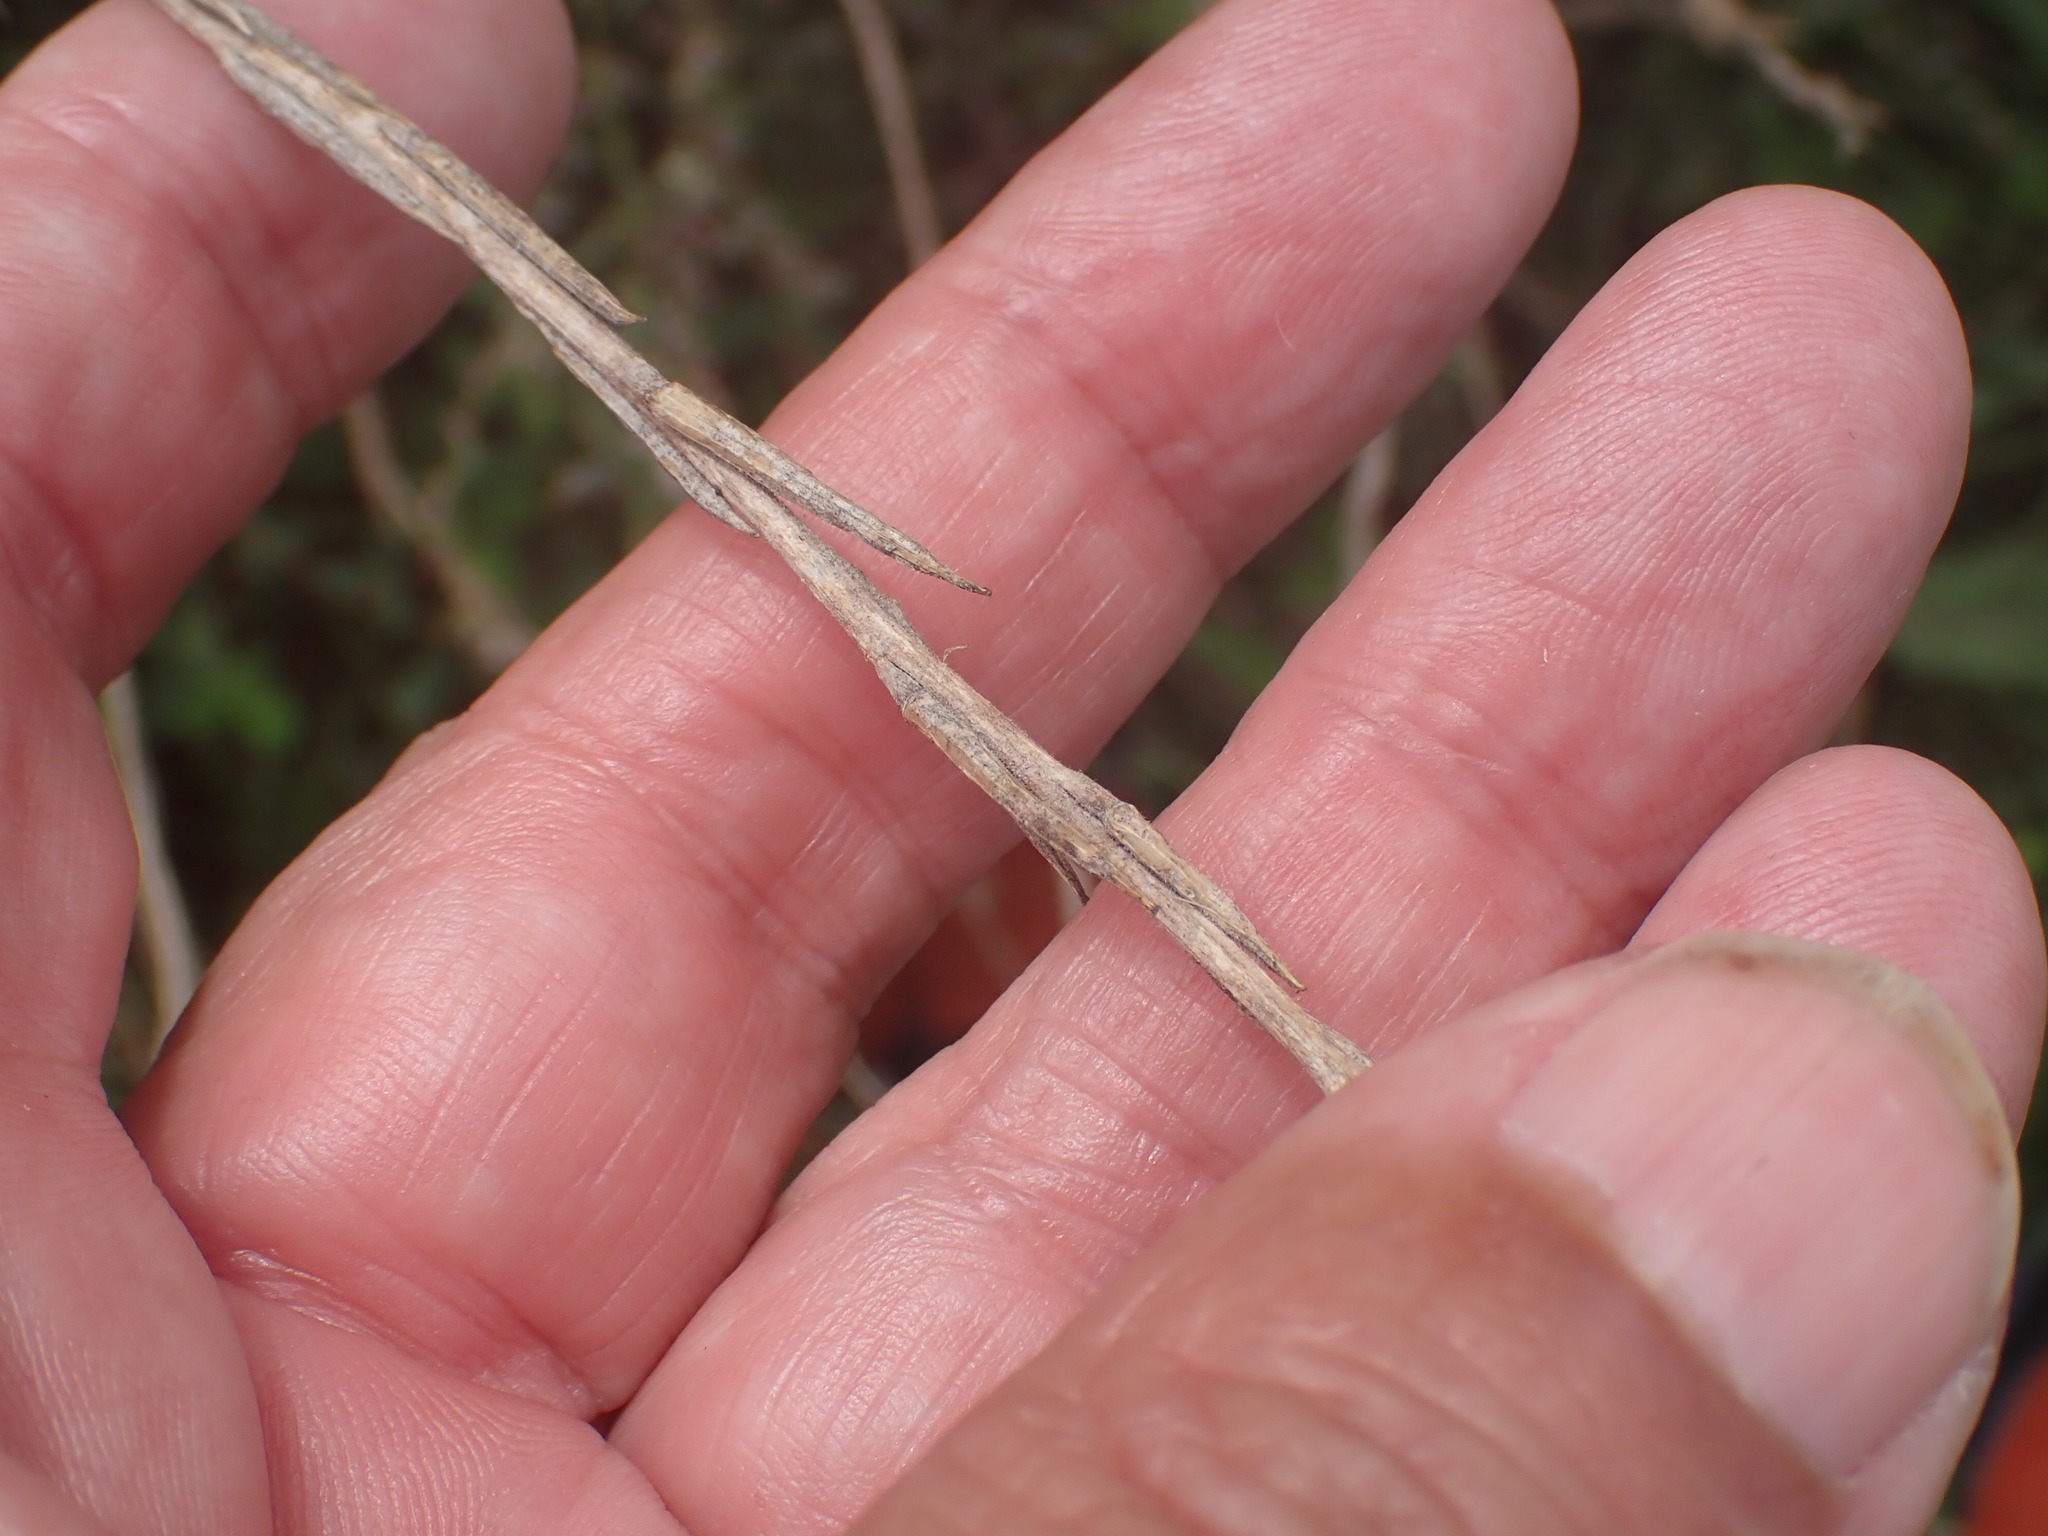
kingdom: Plantae
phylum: Tracheophyta
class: Magnoliopsida
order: Brassicales
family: Brassicaceae
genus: Sisymbrium
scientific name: Sisymbrium officinale
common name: Hedge mustard
